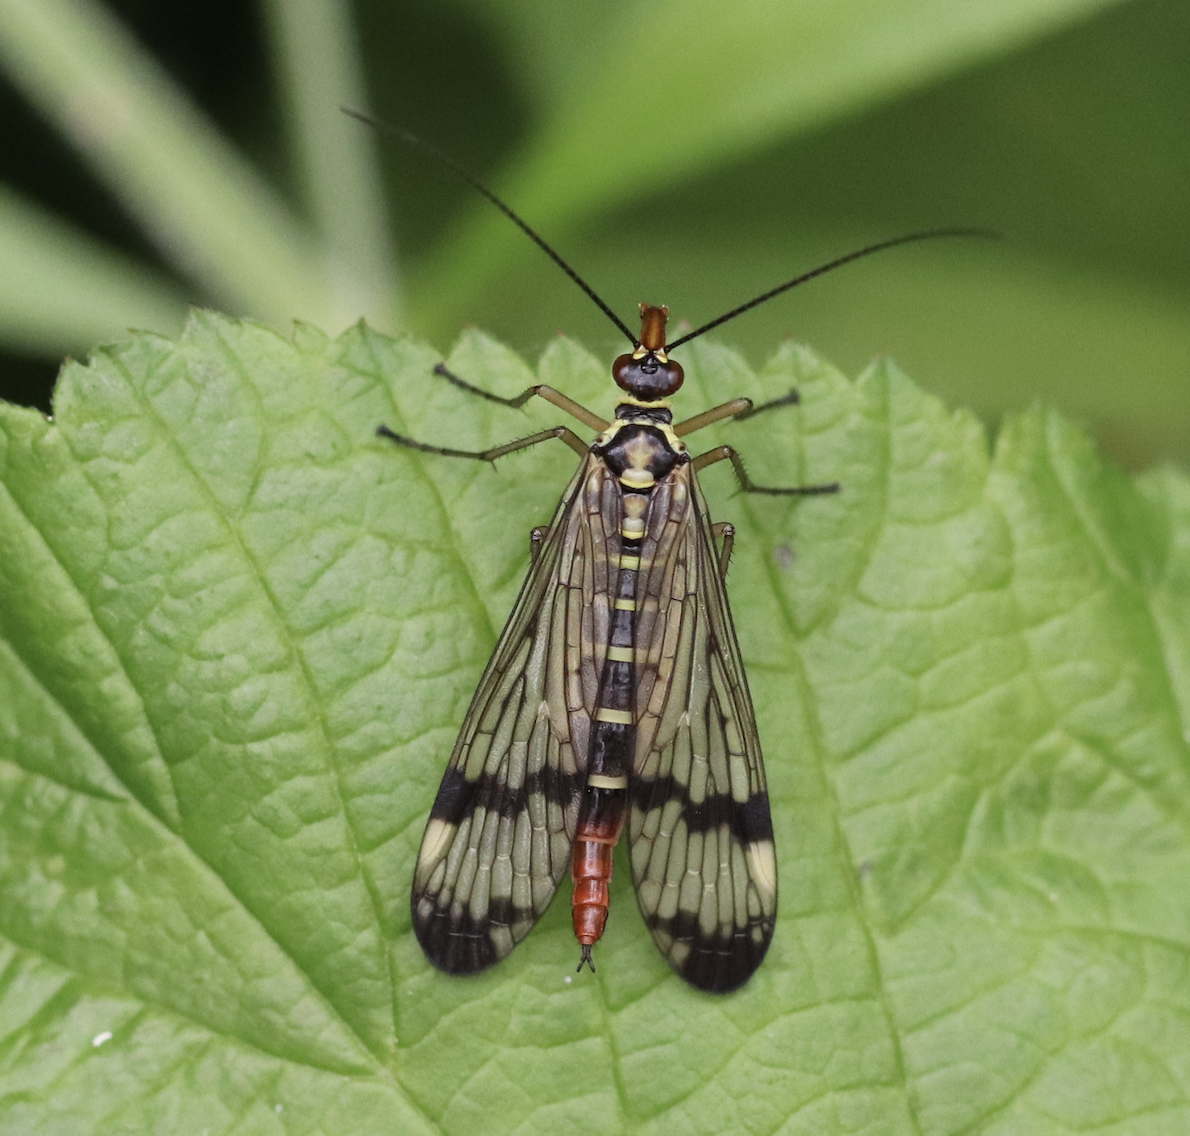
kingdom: Animalia
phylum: Arthropoda
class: Insecta
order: Mecoptera
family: Panorpidae
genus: Panorpa
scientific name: Panorpa communis
